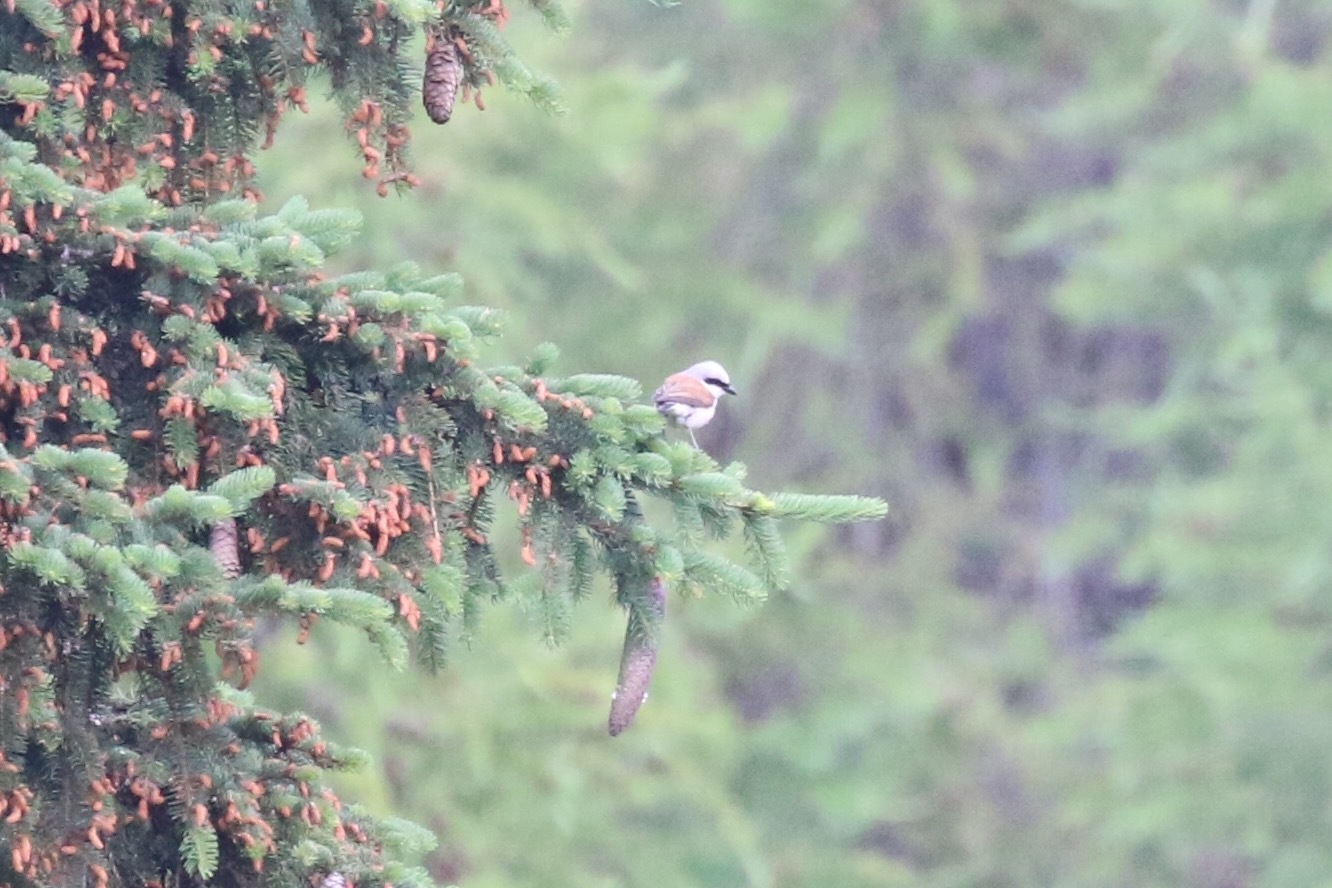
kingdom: Animalia
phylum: Chordata
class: Aves
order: Passeriformes
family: Laniidae
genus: Lanius
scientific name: Lanius collurio
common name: Red-backed shrike
